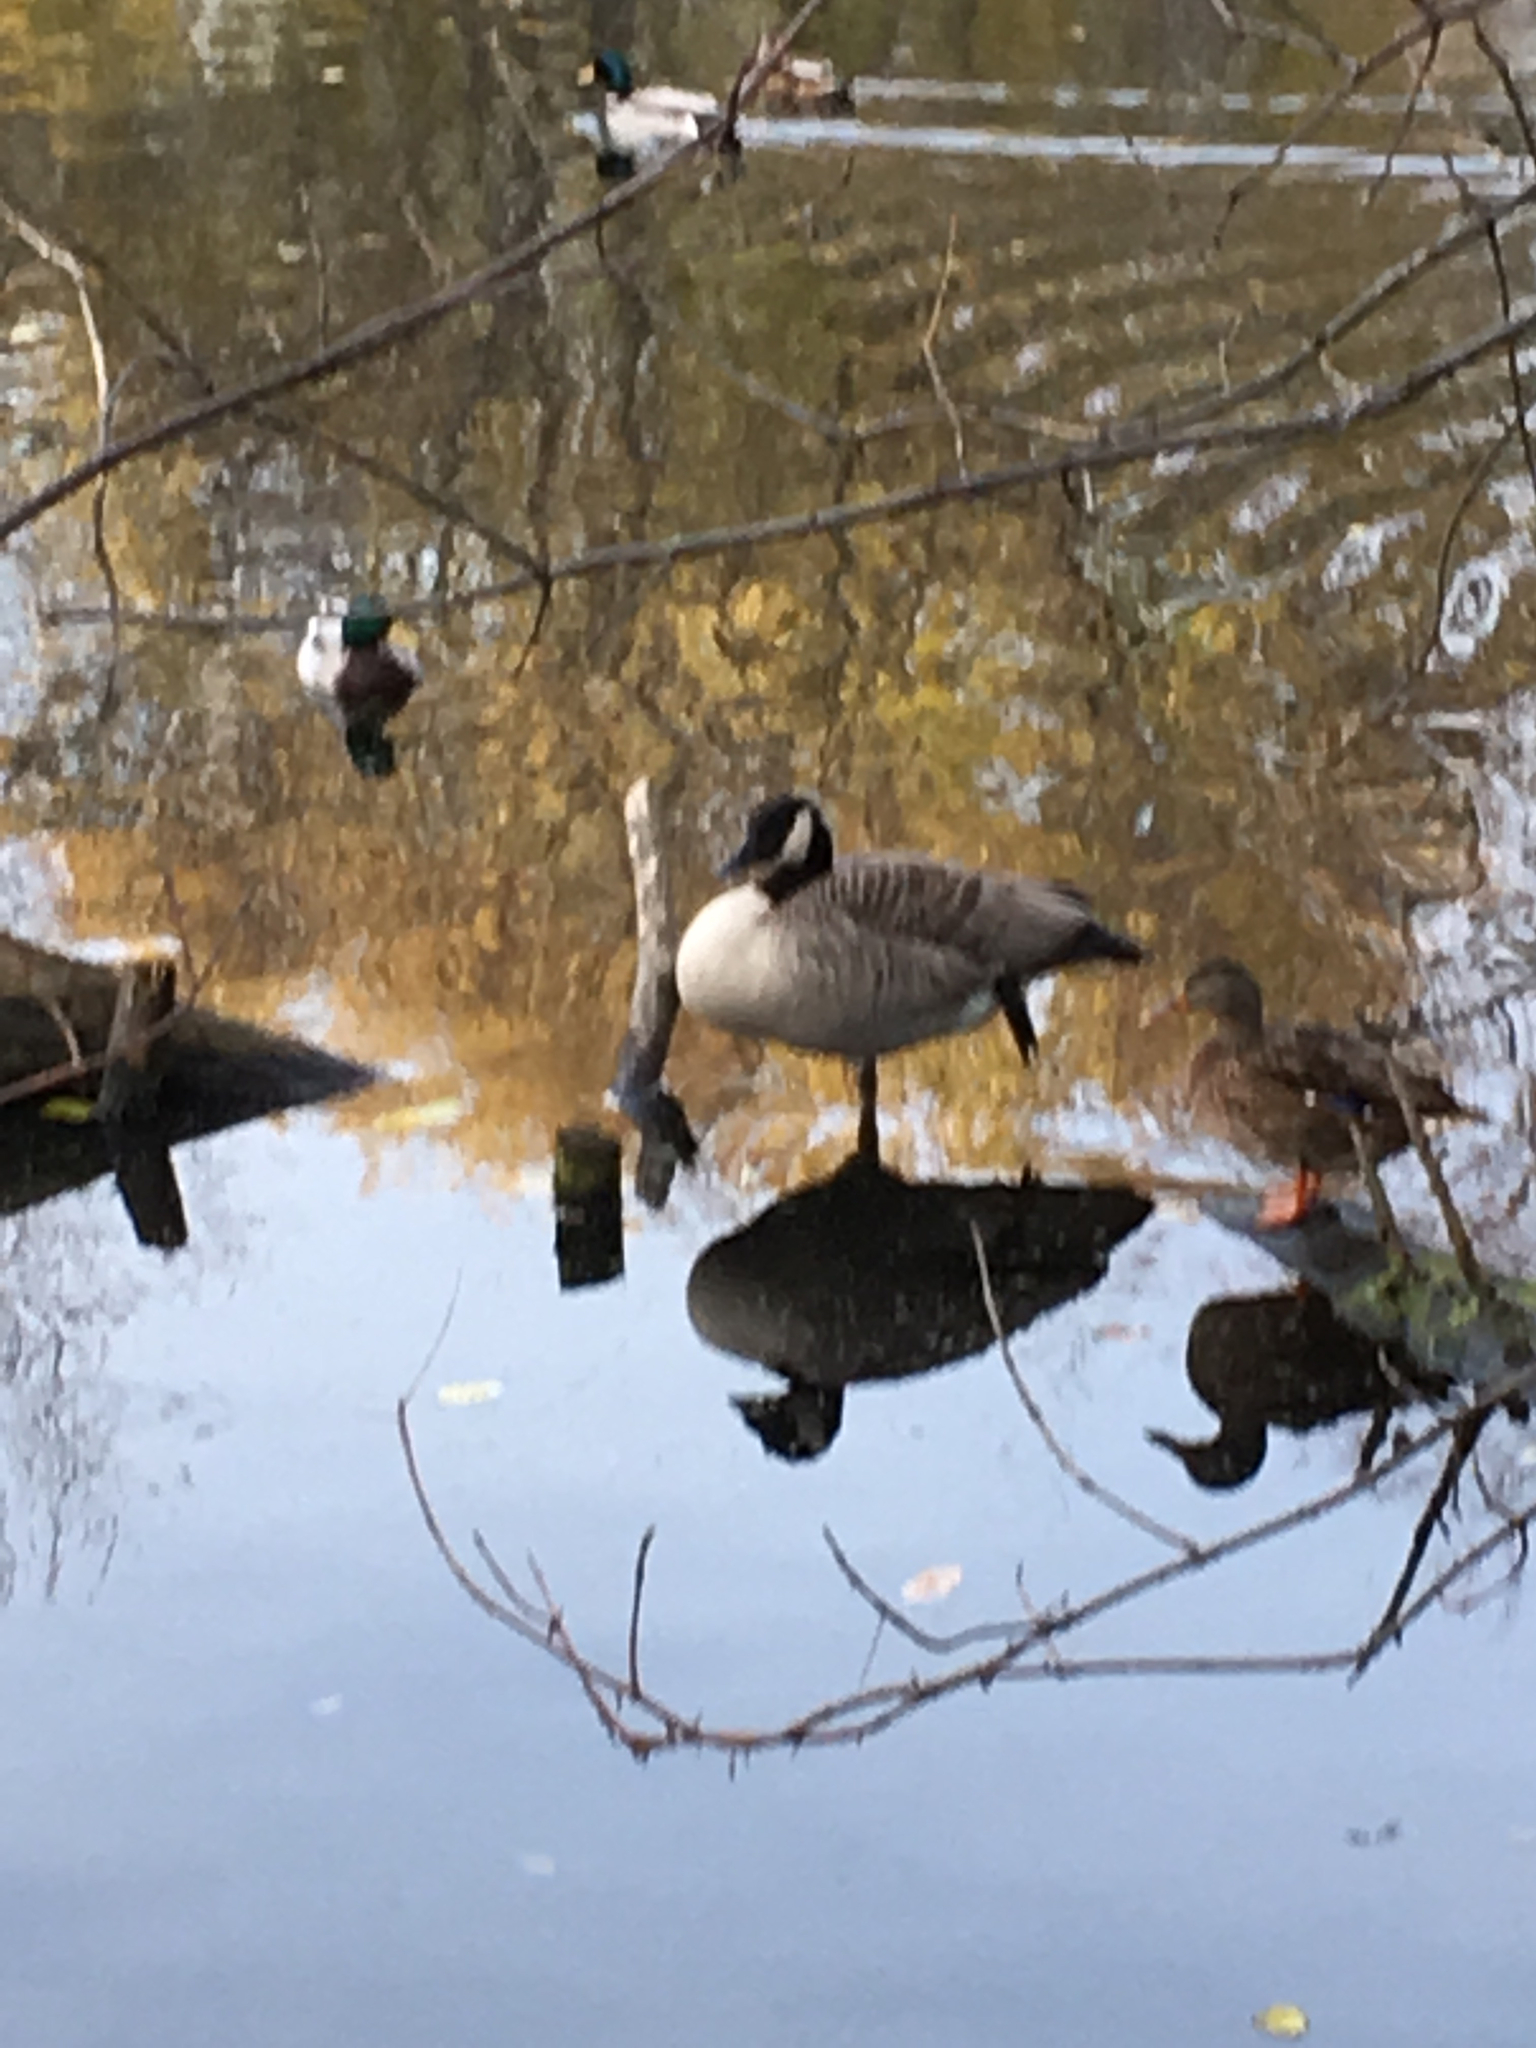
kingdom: Animalia
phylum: Chordata
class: Aves
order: Anseriformes
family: Anatidae
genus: Branta
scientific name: Branta canadensis
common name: Canada goose
